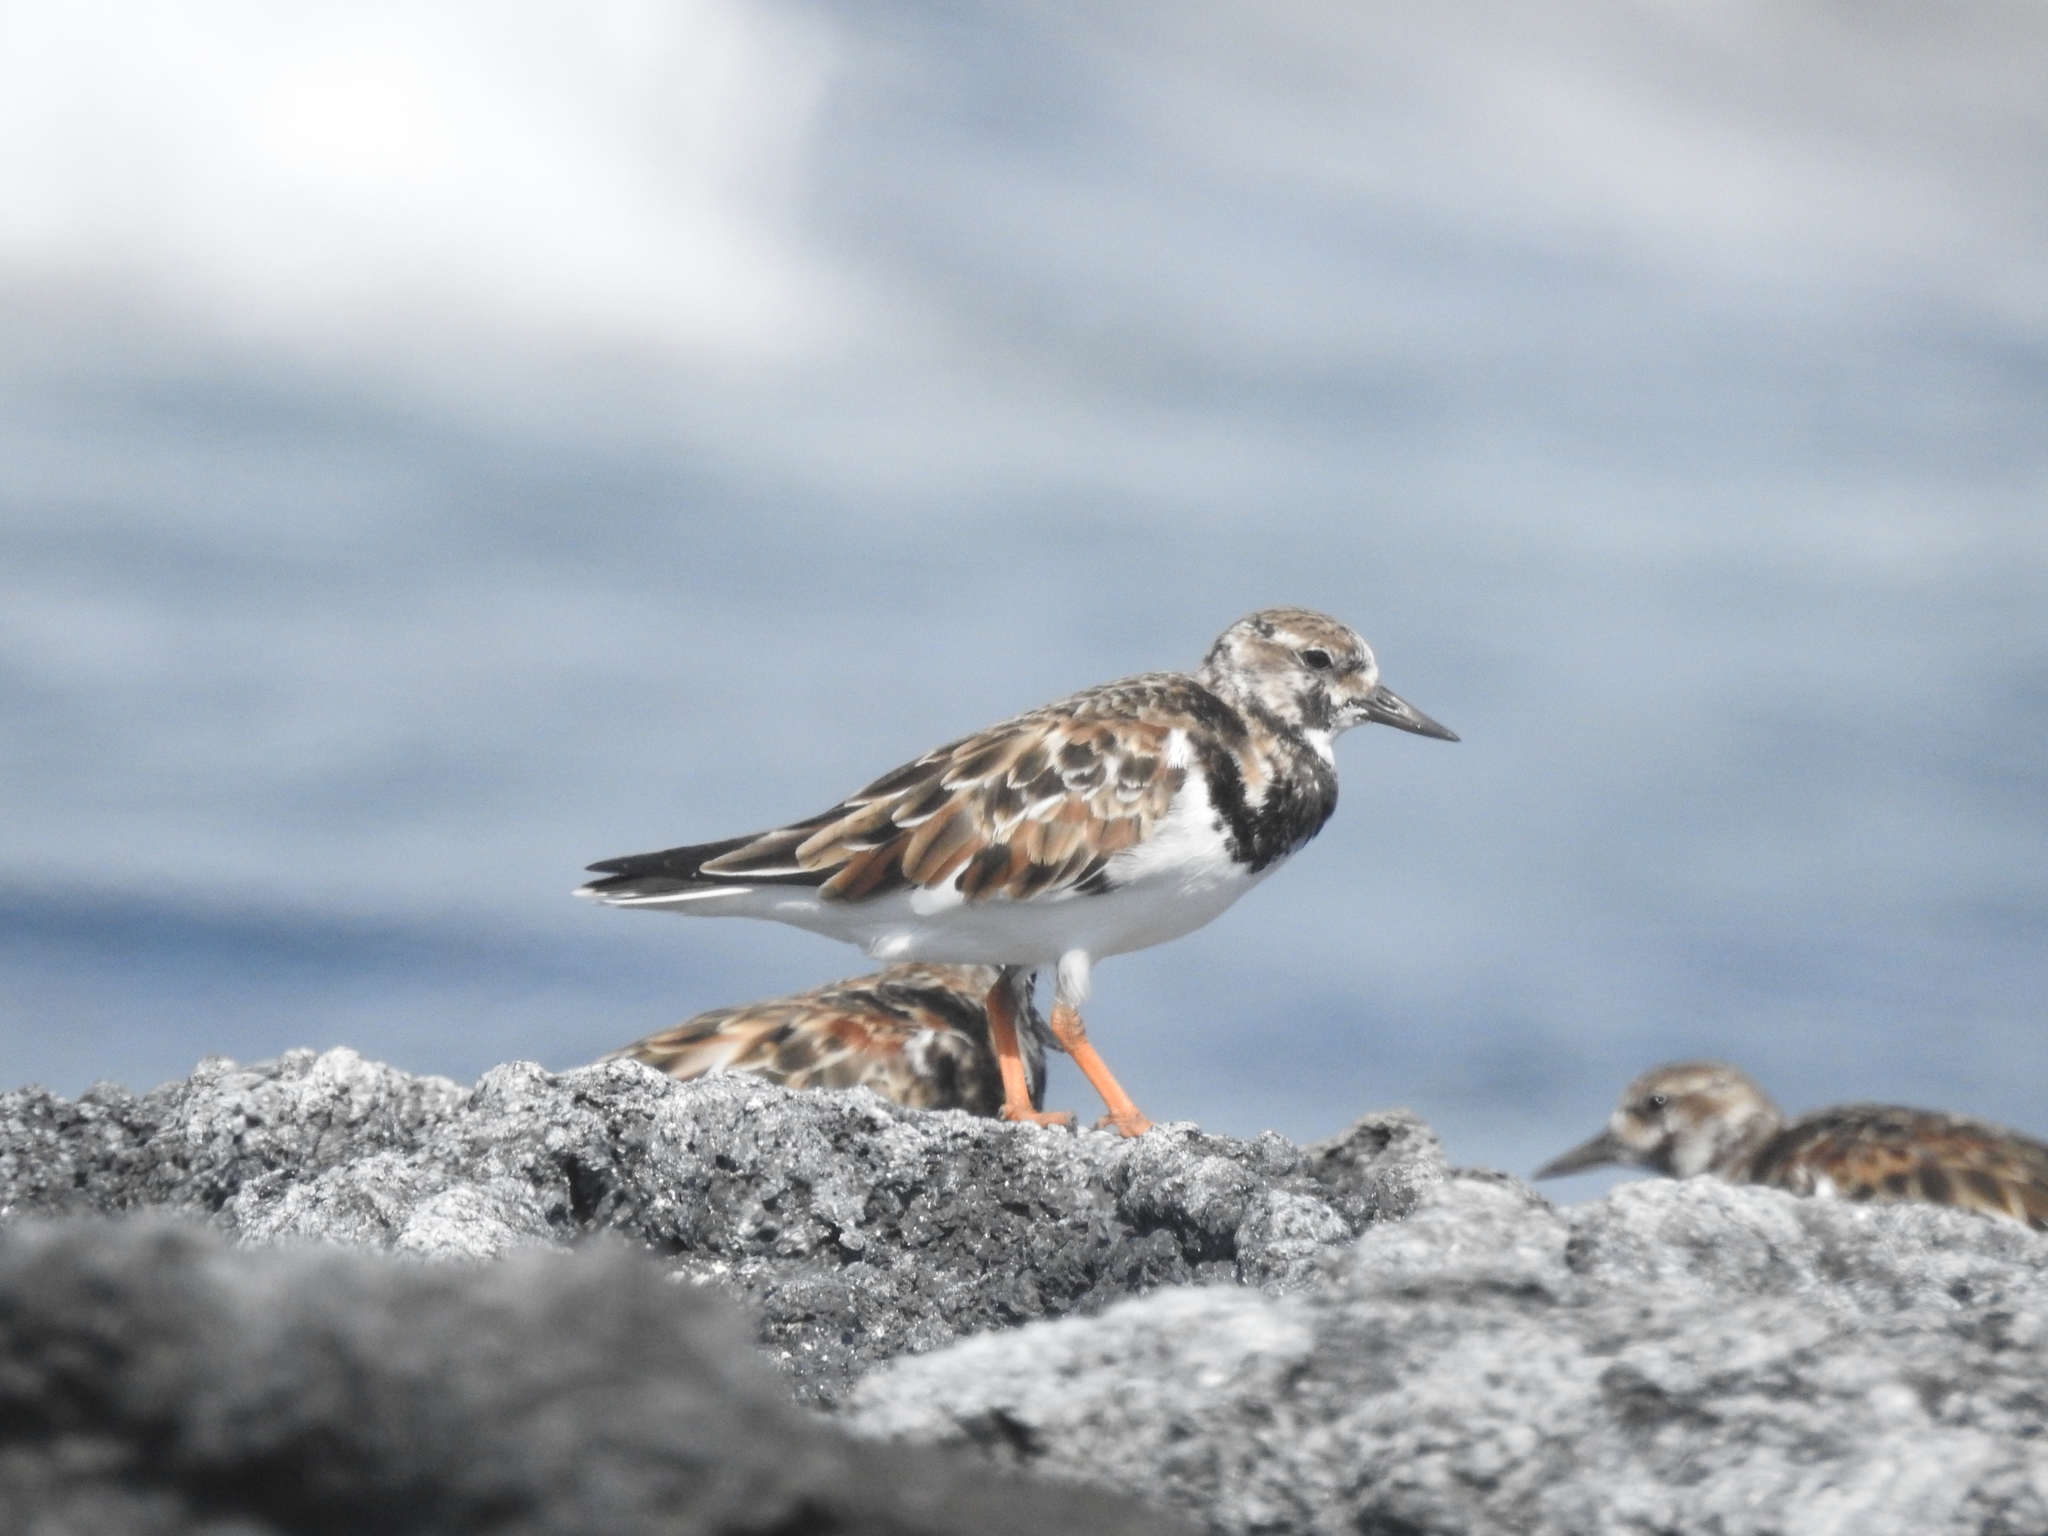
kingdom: Animalia
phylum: Chordata
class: Aves
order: Charadriiformes
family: Scolopacidae
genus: Arenaria
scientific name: Arenaria interpres
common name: Ruddy turnstone
